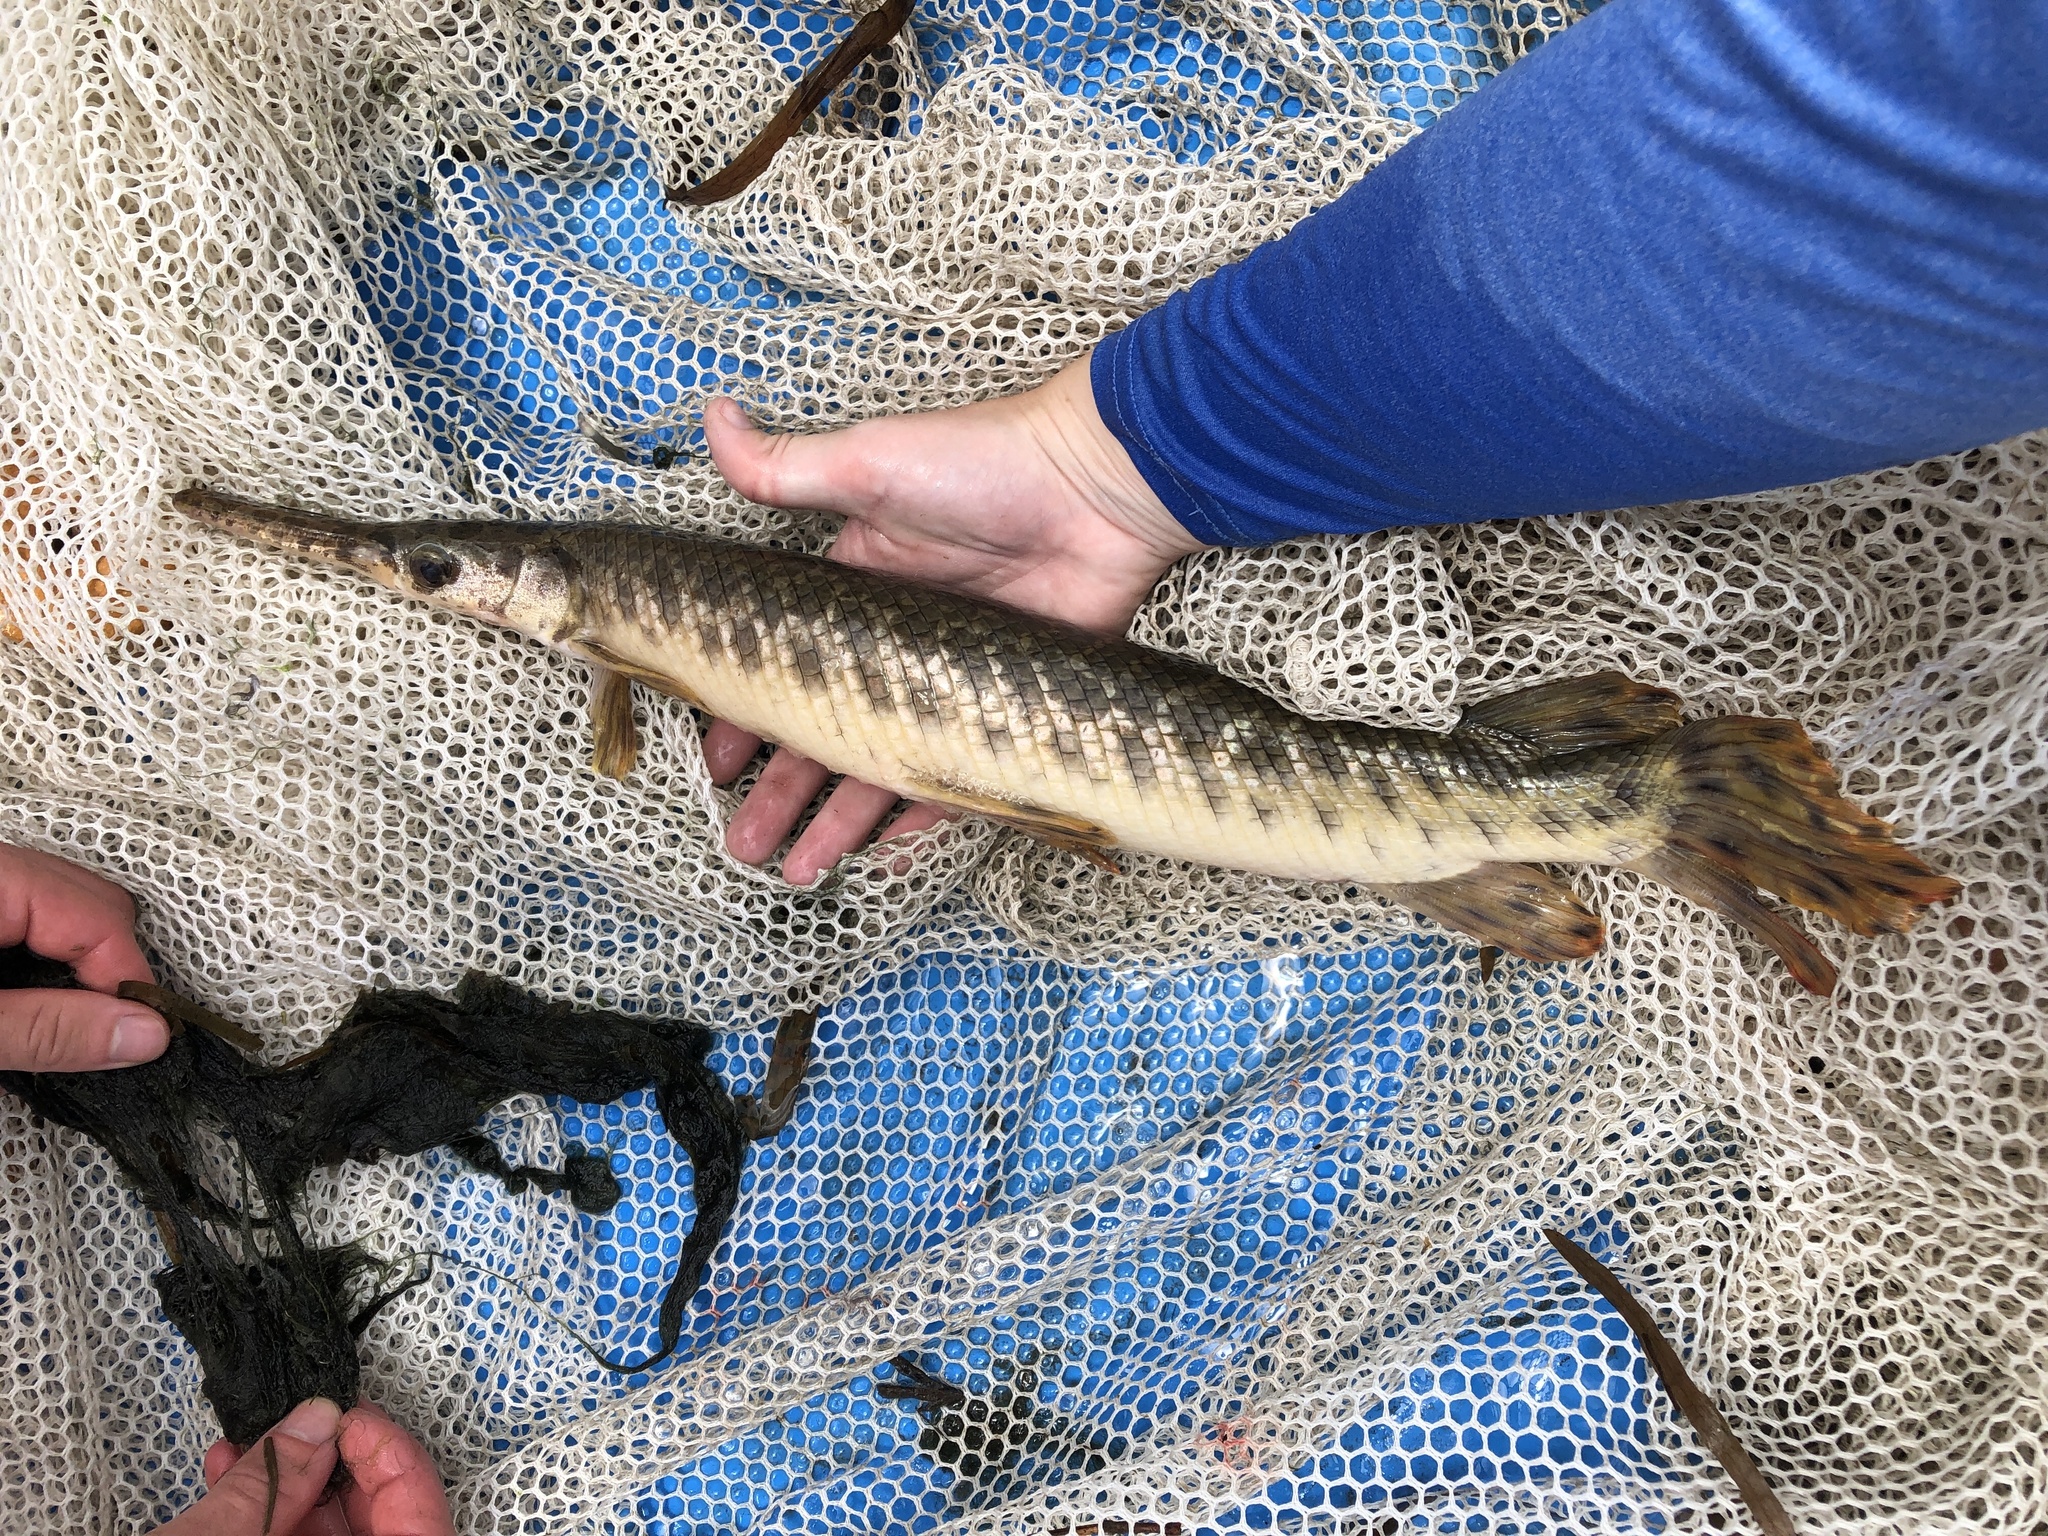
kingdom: Animalia
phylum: Chordata
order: Lepisosteiformes
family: Lepisosteidae
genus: Lepisosteus
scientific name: Lepisosteus oculatus
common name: Spotted gar
